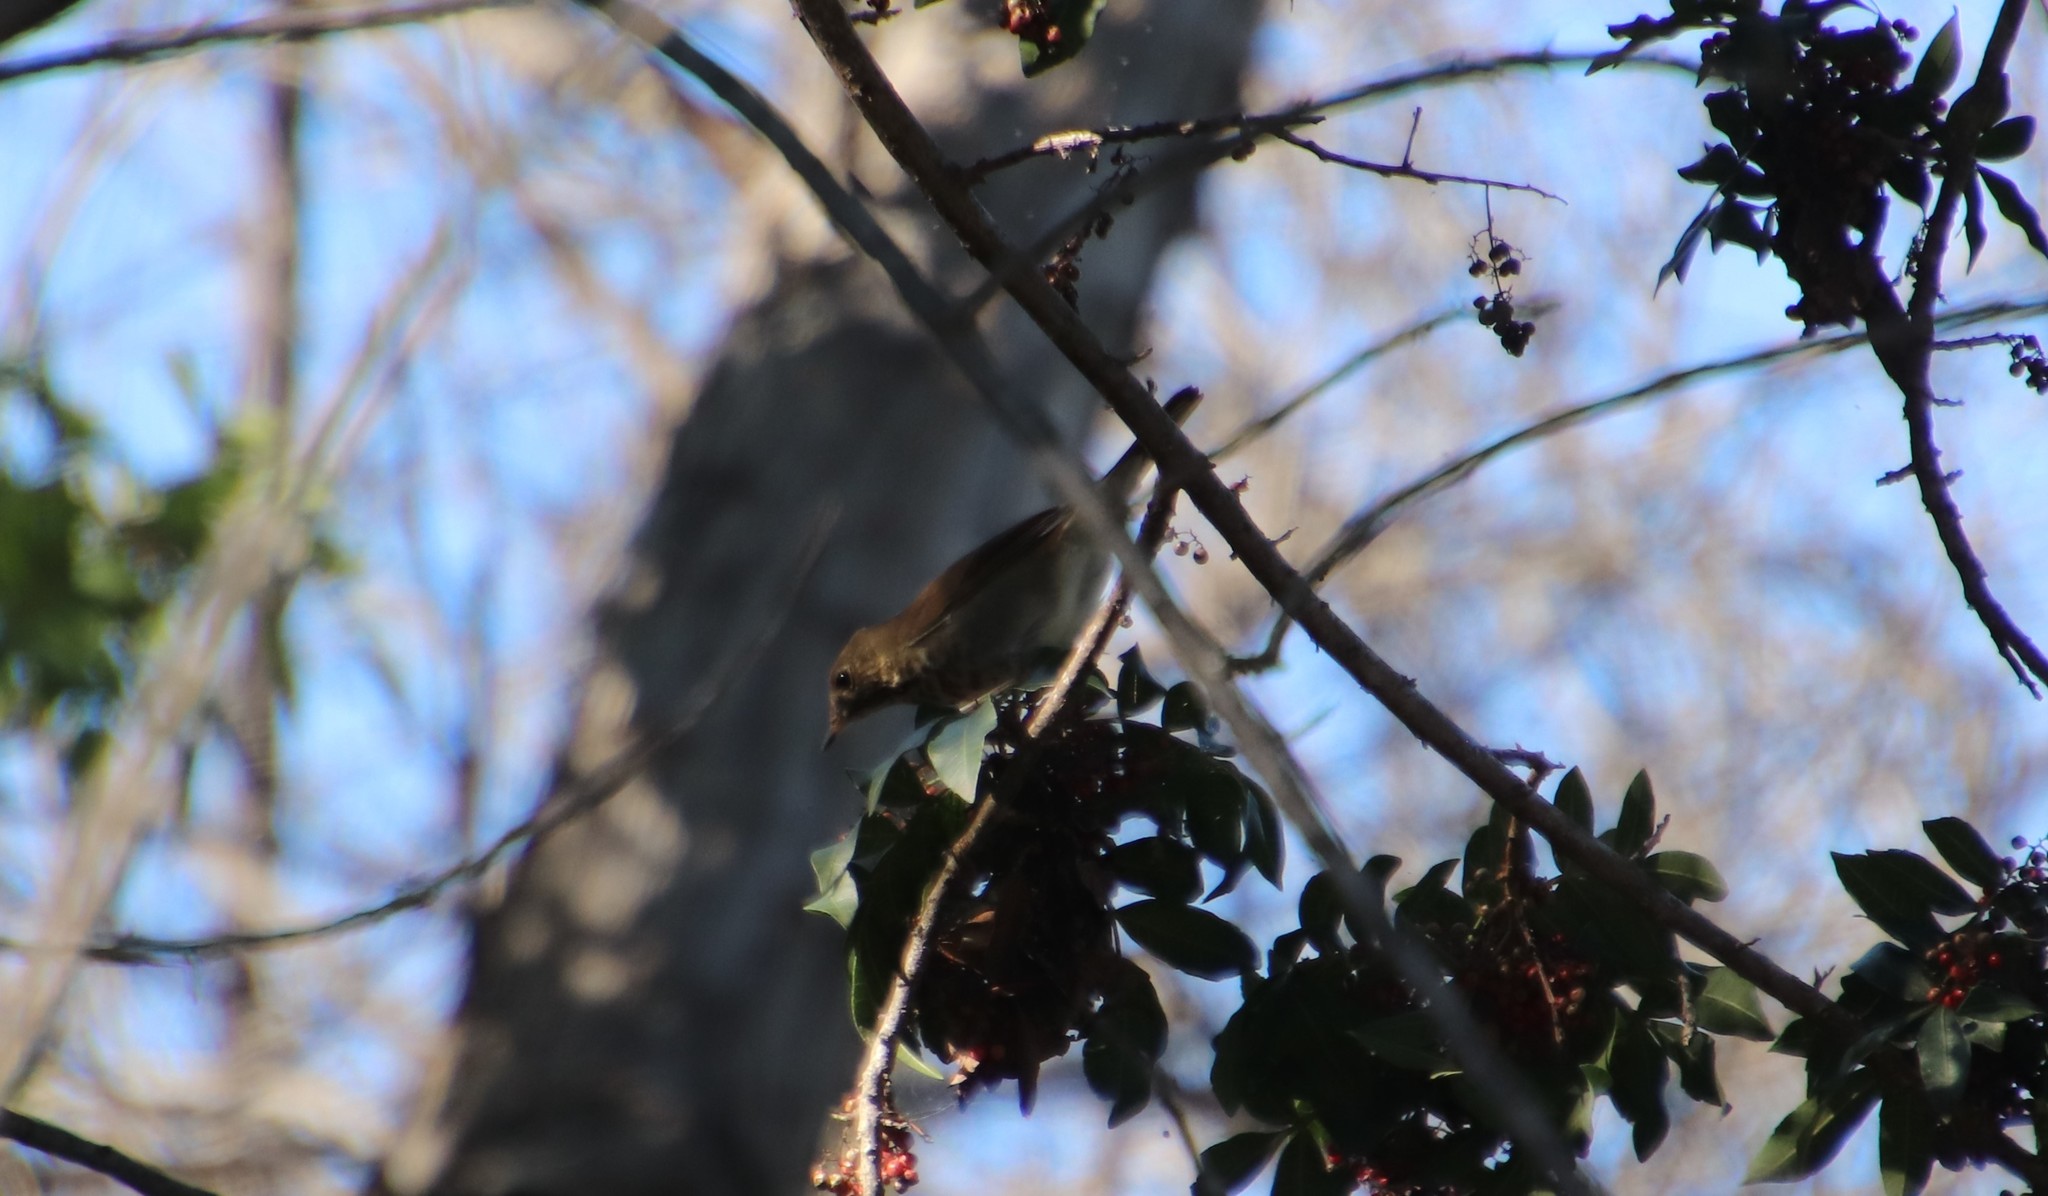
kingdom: Animalia
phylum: Chordata
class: Aves
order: Passeriformes
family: Turdidae
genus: Catharus
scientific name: Catharus guttatus
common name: Hermit thrush
